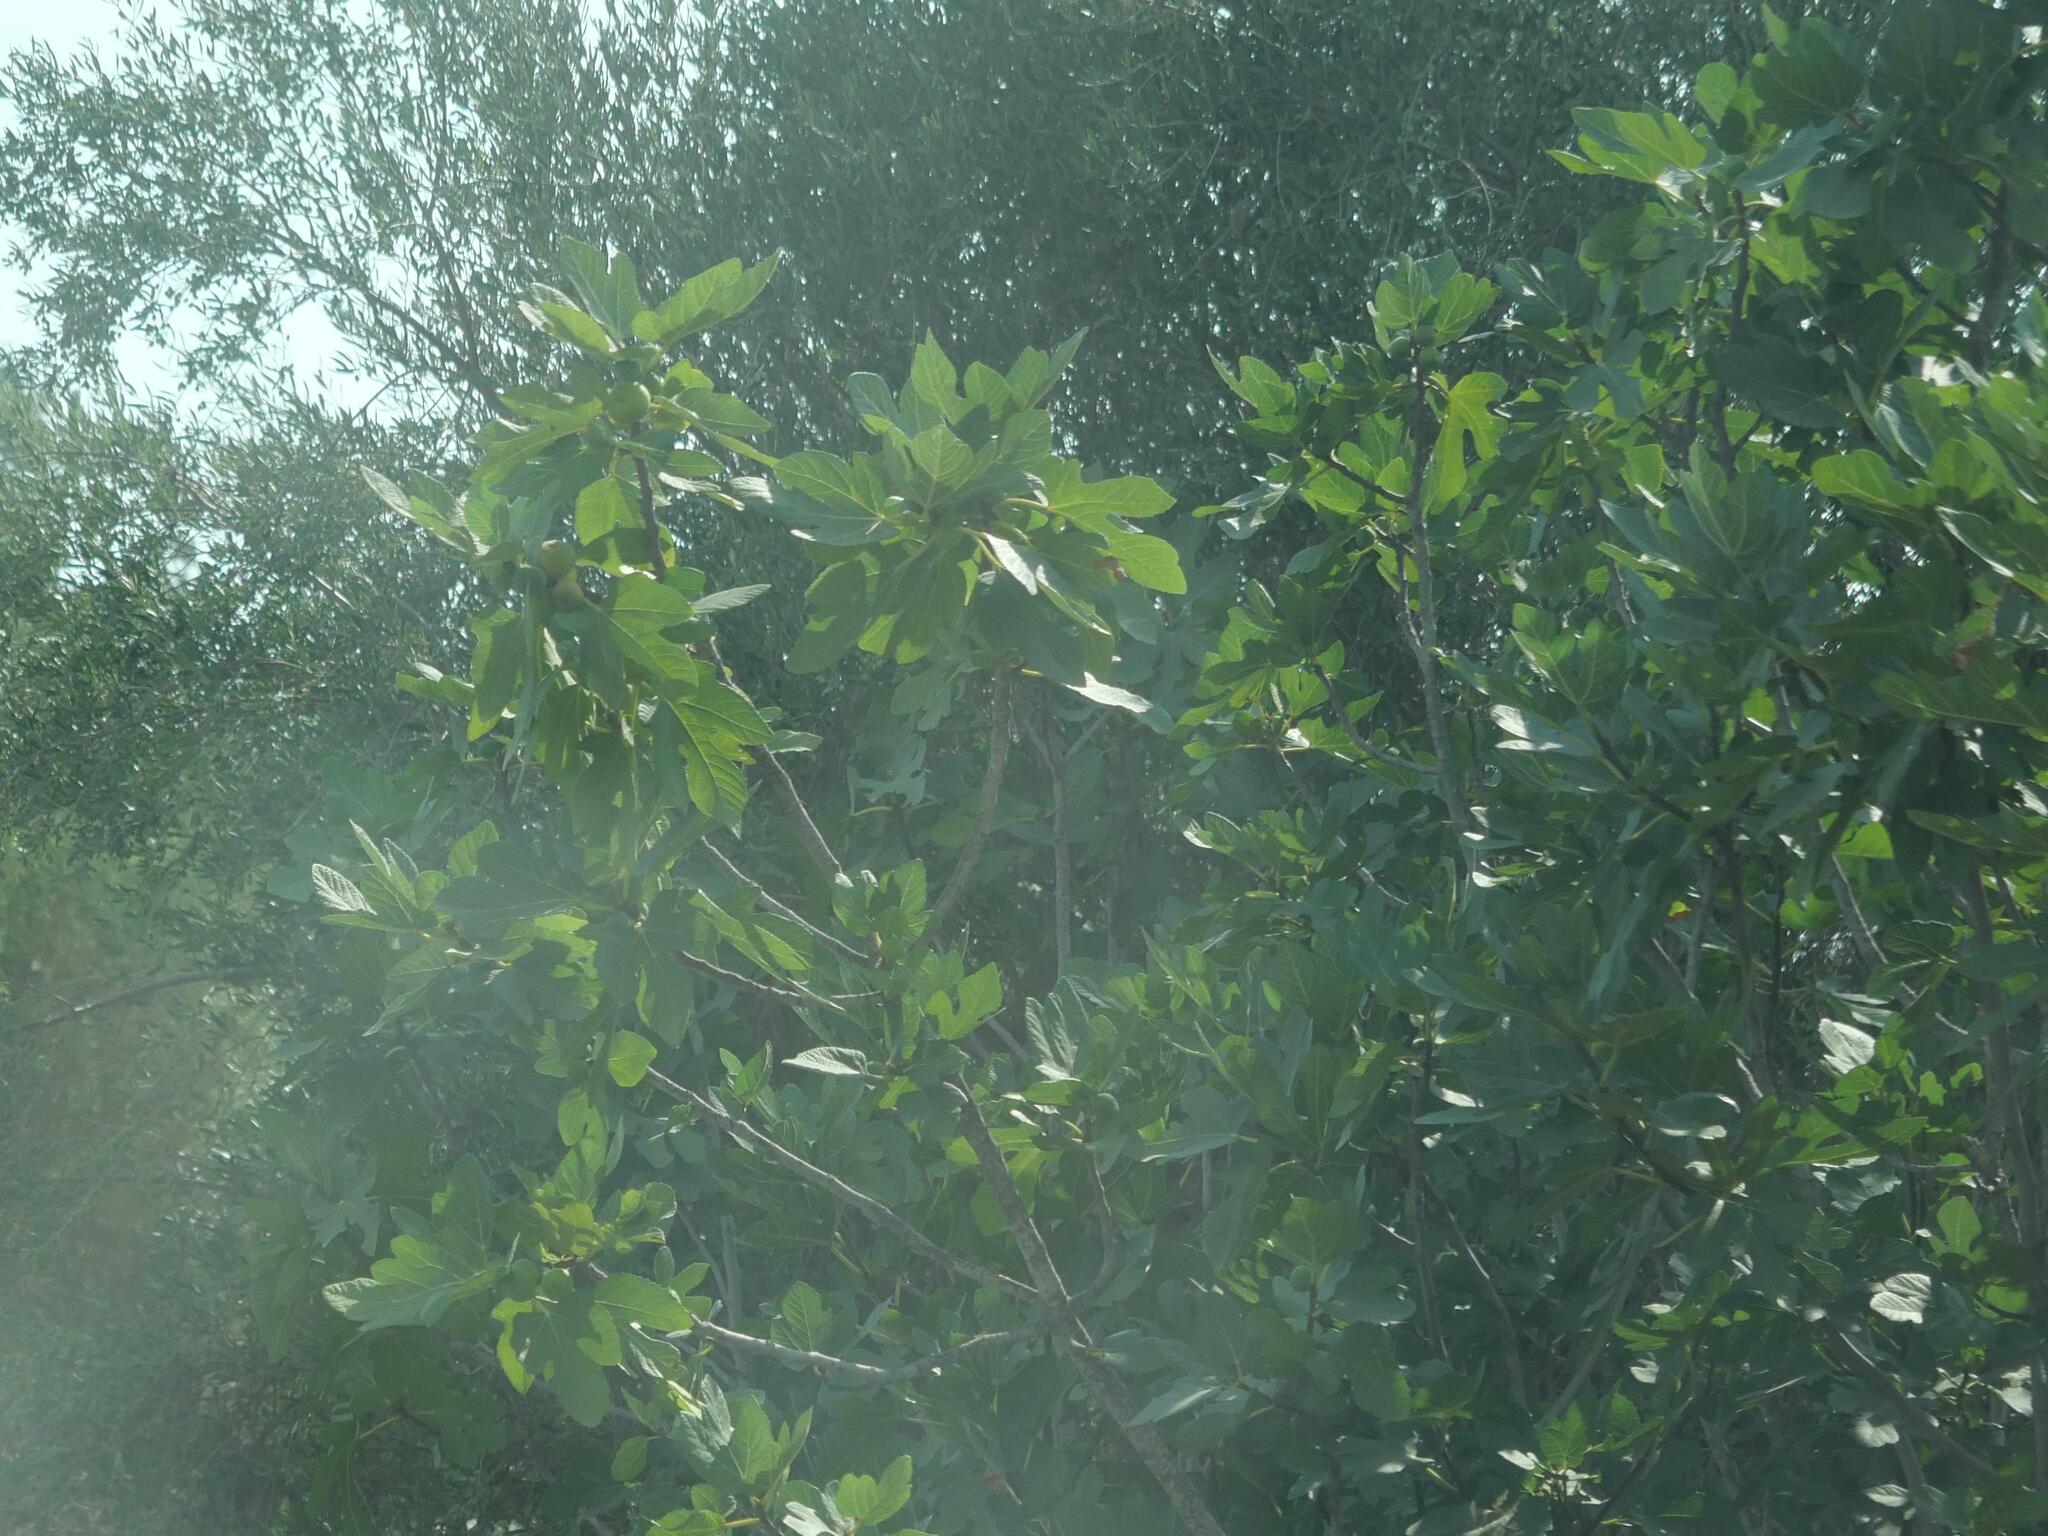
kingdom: Plantae
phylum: Tracheophyta
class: Magnoliopsida
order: Rosales
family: Moraceae
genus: Ficus
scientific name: Ficus carica
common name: Fig
